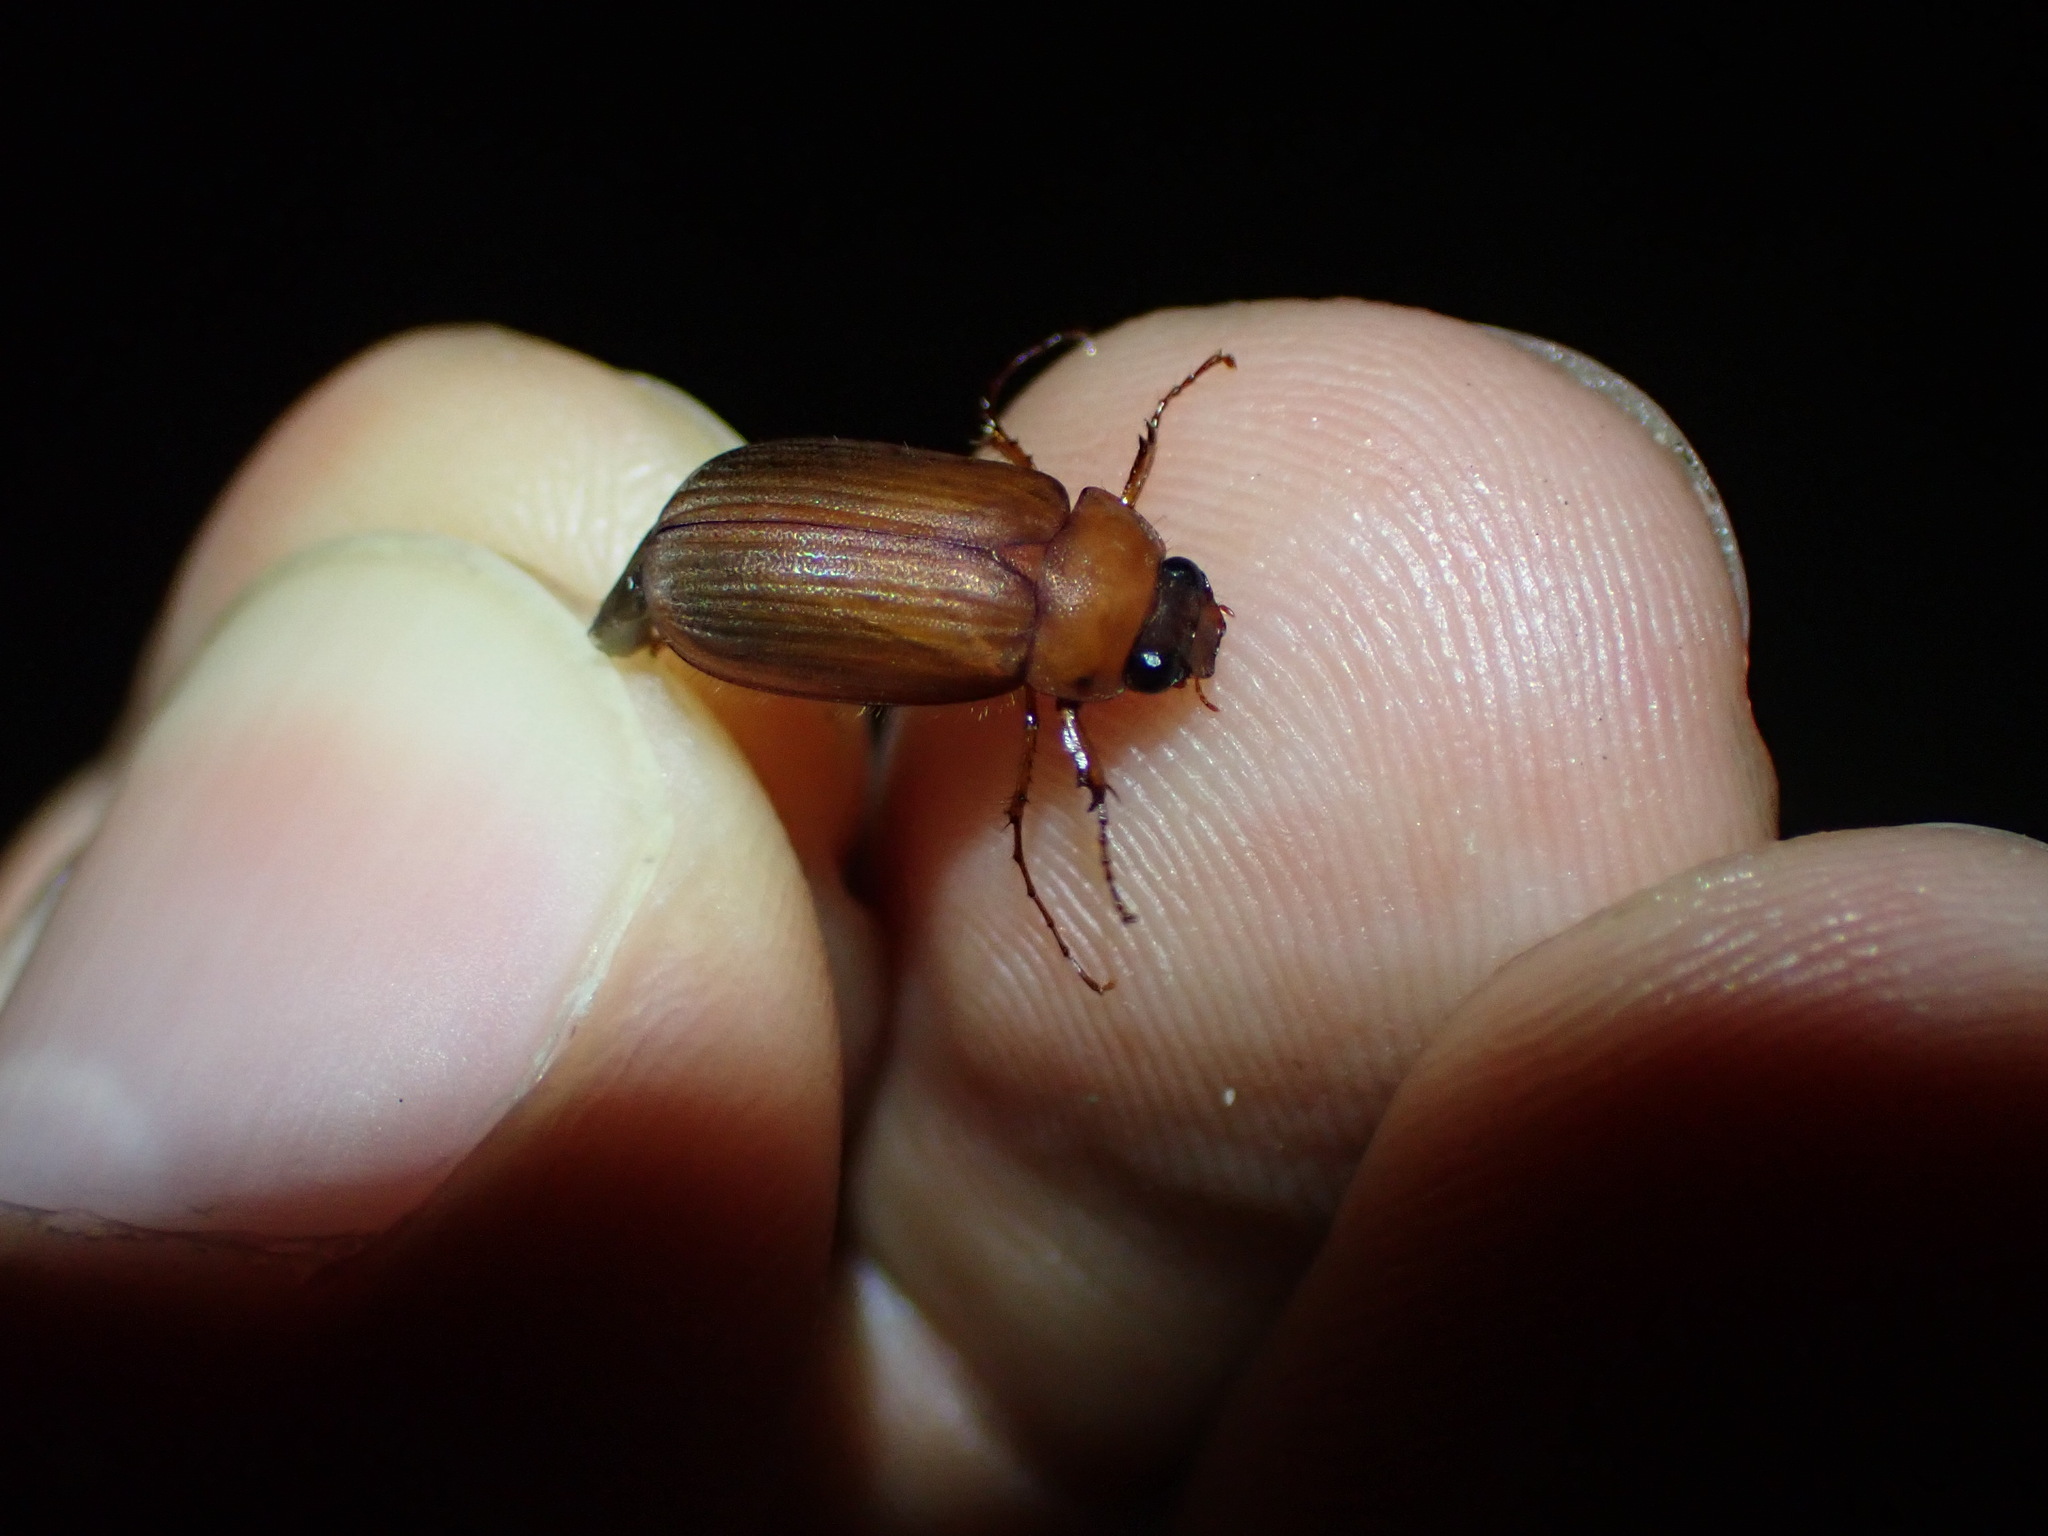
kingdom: Animalia
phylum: Arthropoda
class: Insecta
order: Coleoptera
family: Scarabaeidae
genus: Serica
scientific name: Serica brunnea
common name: Brown chafer
